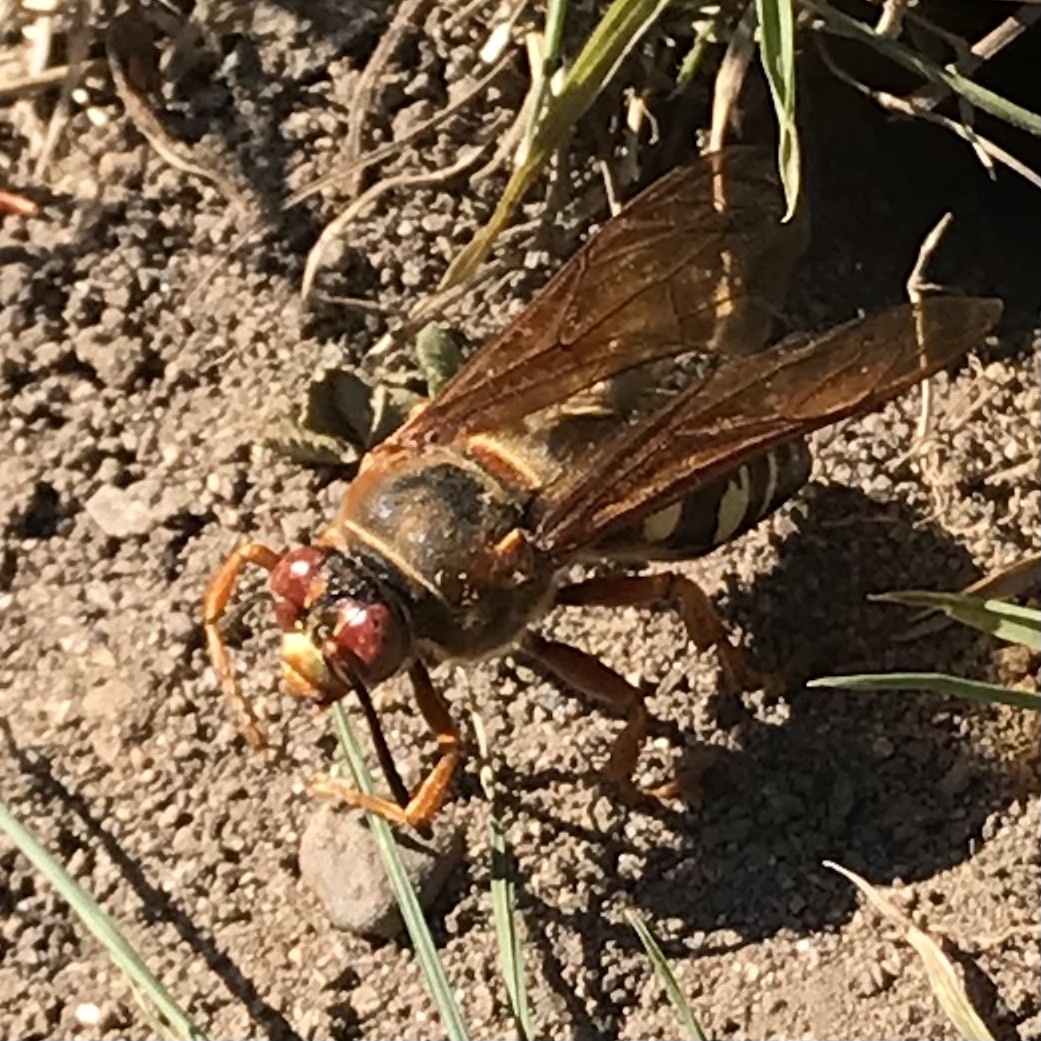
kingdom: Animalia
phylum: Arthropoda
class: Insecta
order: Hymenoptera
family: Crabronidae
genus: Sphecius
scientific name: Sphecius speciosus
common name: Cicada killer
